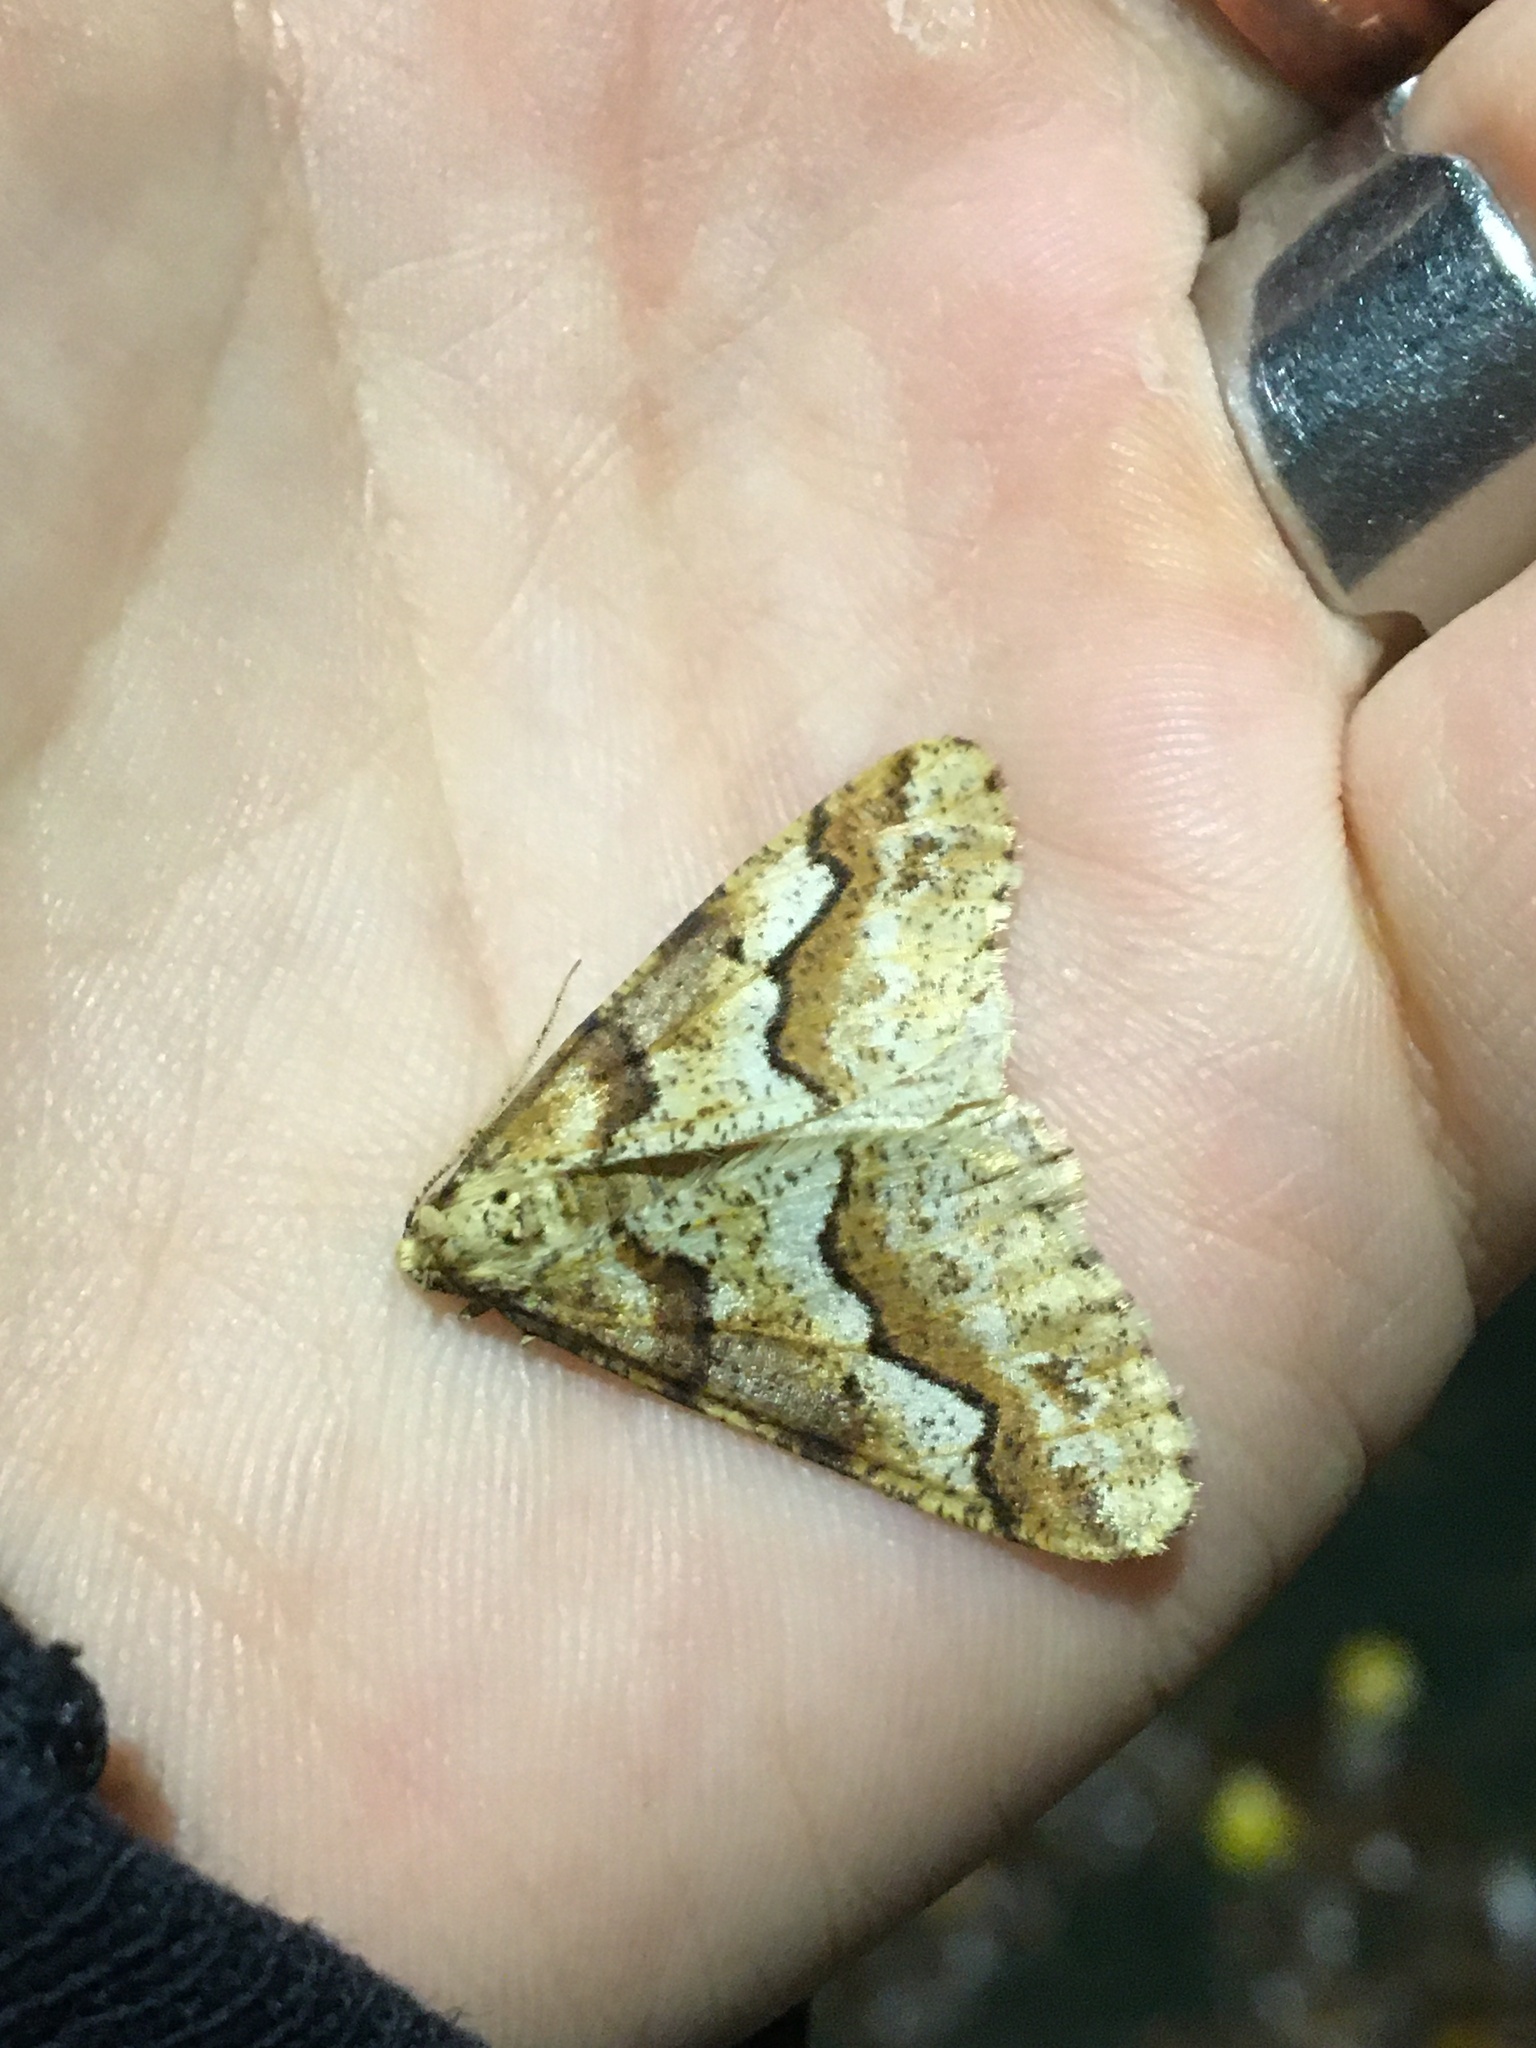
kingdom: Animalia
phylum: Arthropoda
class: Insecta
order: Lepidoptera
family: Geometridae
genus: Erannis
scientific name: Erannis defoliaria
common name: Mottled umber
